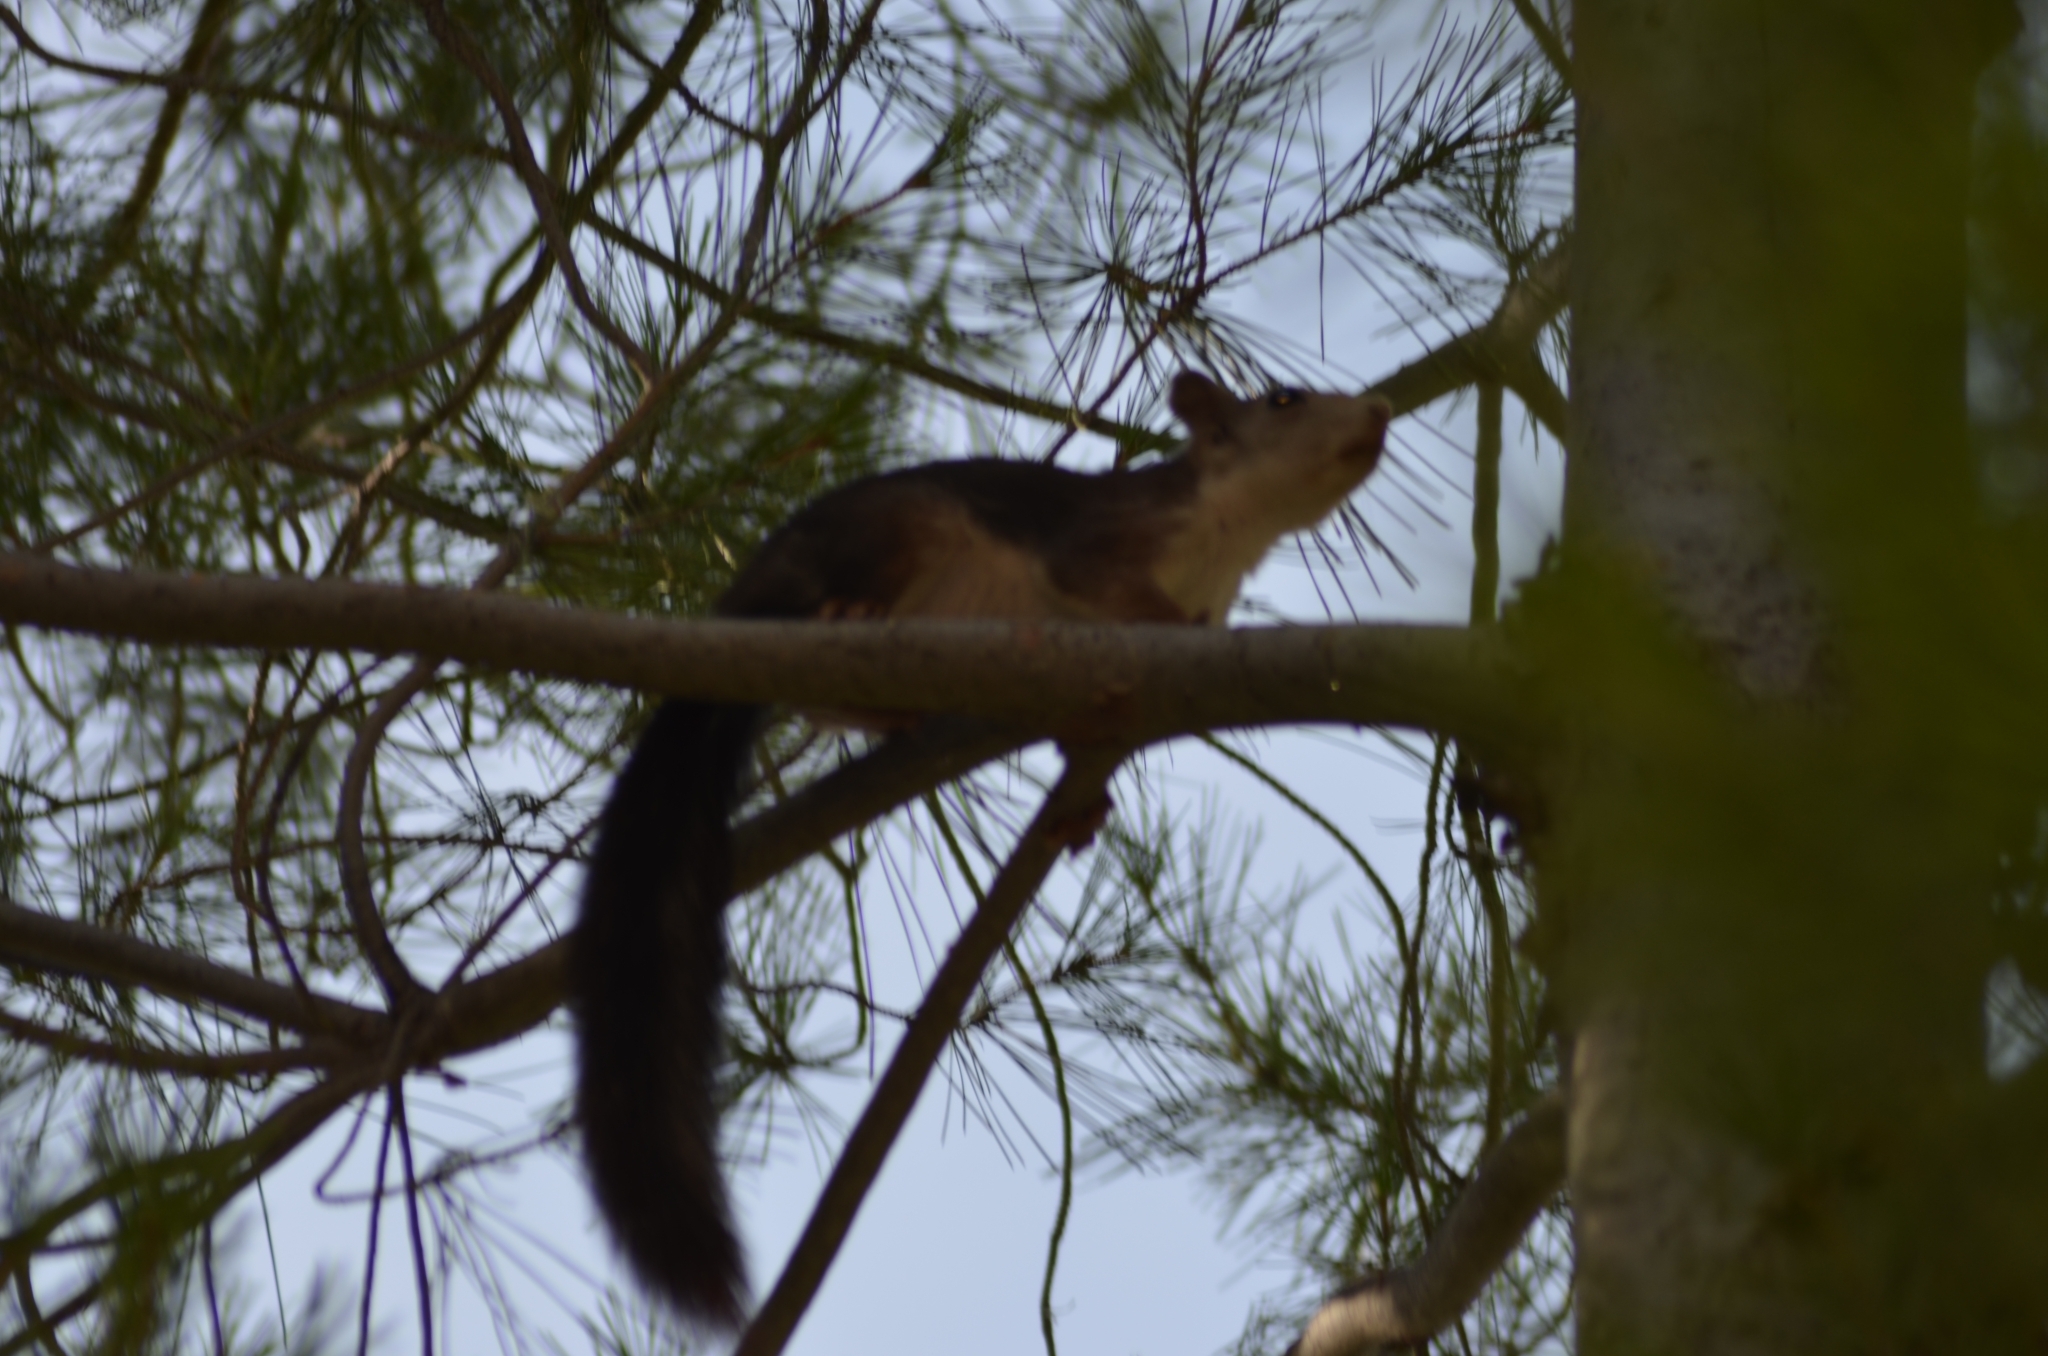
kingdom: Animalia
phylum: Chordata
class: Mammalia
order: Rodentia
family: Sciuridae
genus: Sciurus
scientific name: Sciurus vulgaris
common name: Eurasian red squirrel
